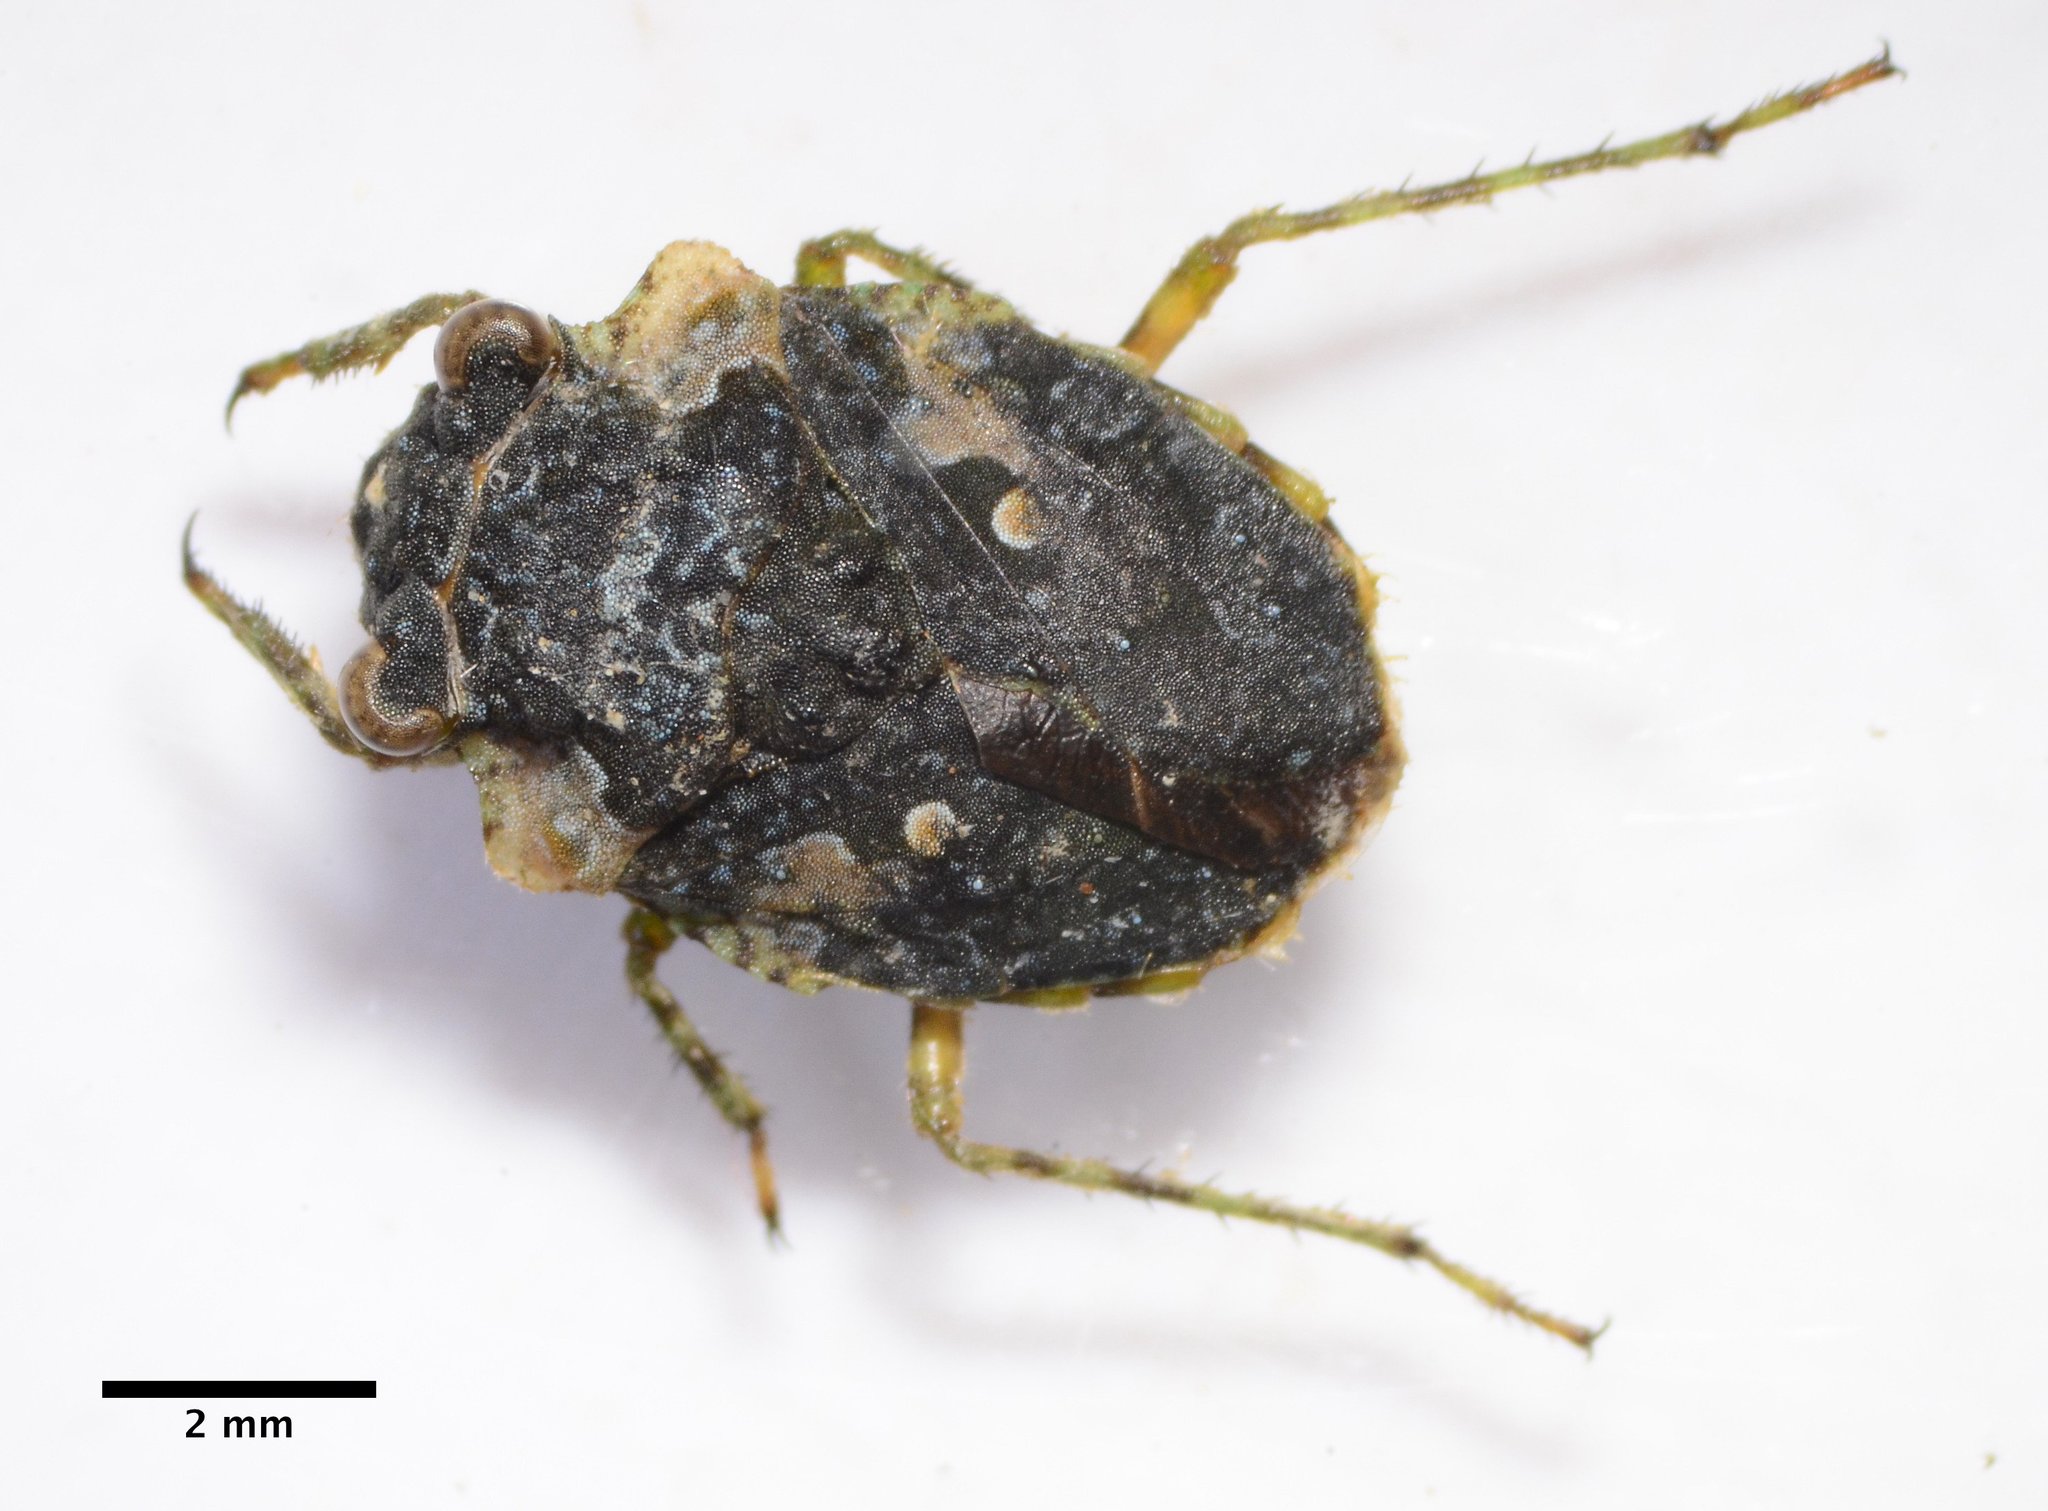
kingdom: Animalia
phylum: Arthropoda
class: Insecta
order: Hemiptera
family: Gelastocoridae
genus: Gelastocoris
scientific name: Gelastocoris oculatus
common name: Toad bug
